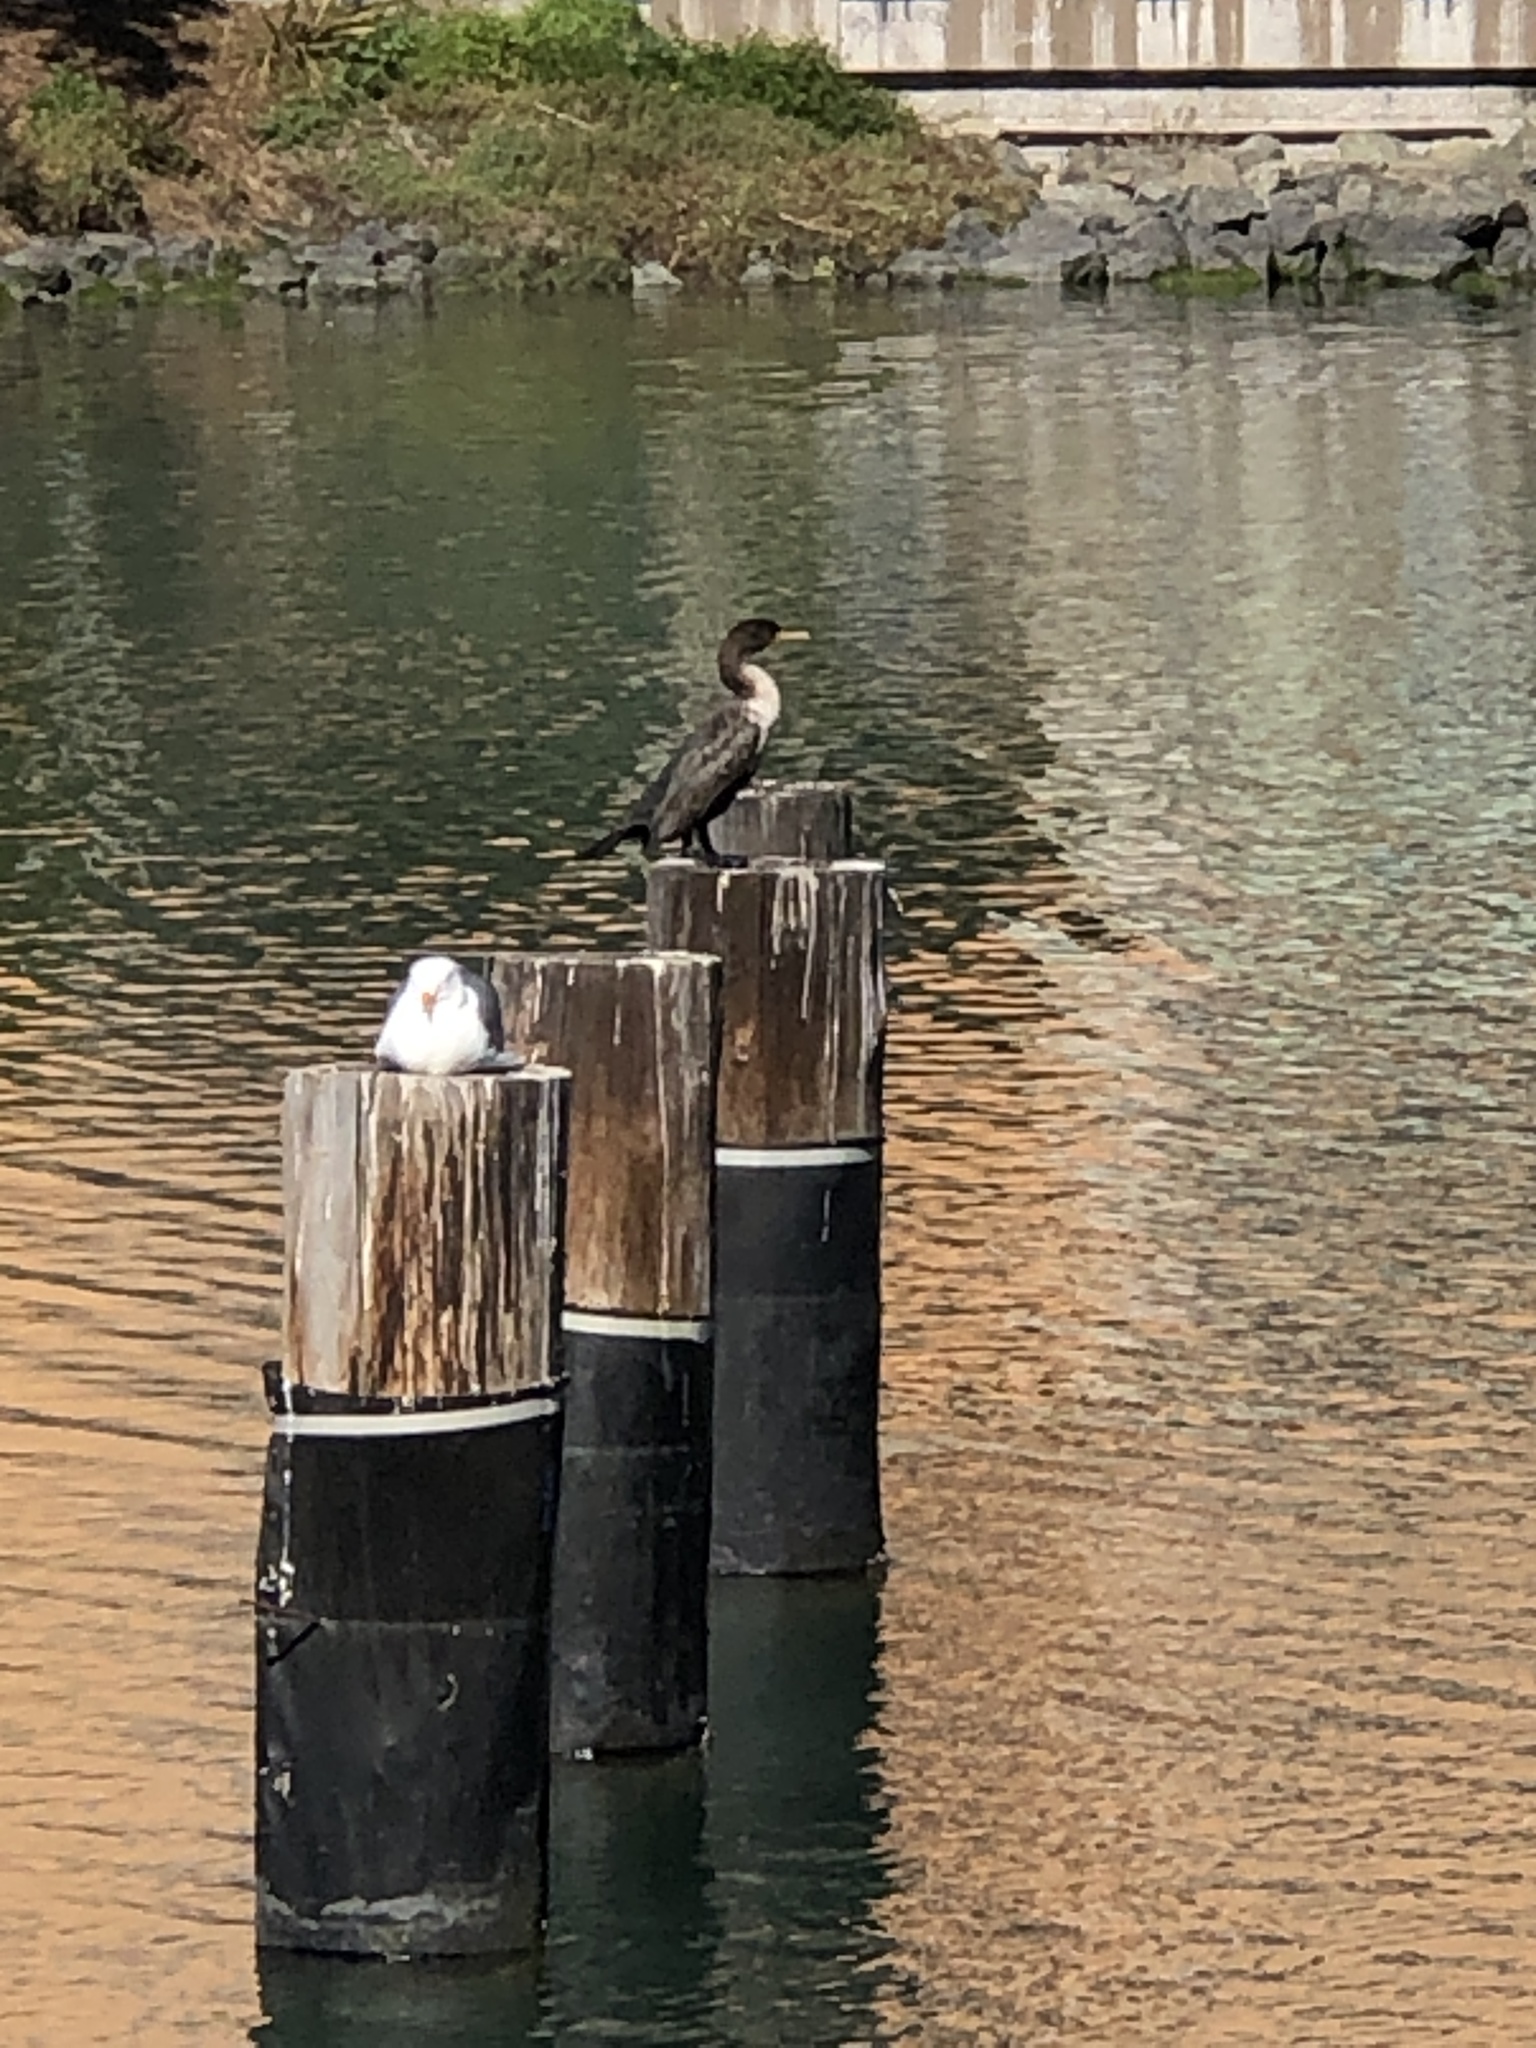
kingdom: Animalia
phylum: Chordata
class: Aves
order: Suliformes
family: Phalacrocoracidae
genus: Phalacrocorax
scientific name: Phalacrocorax auritus
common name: Double-crested cormorant
